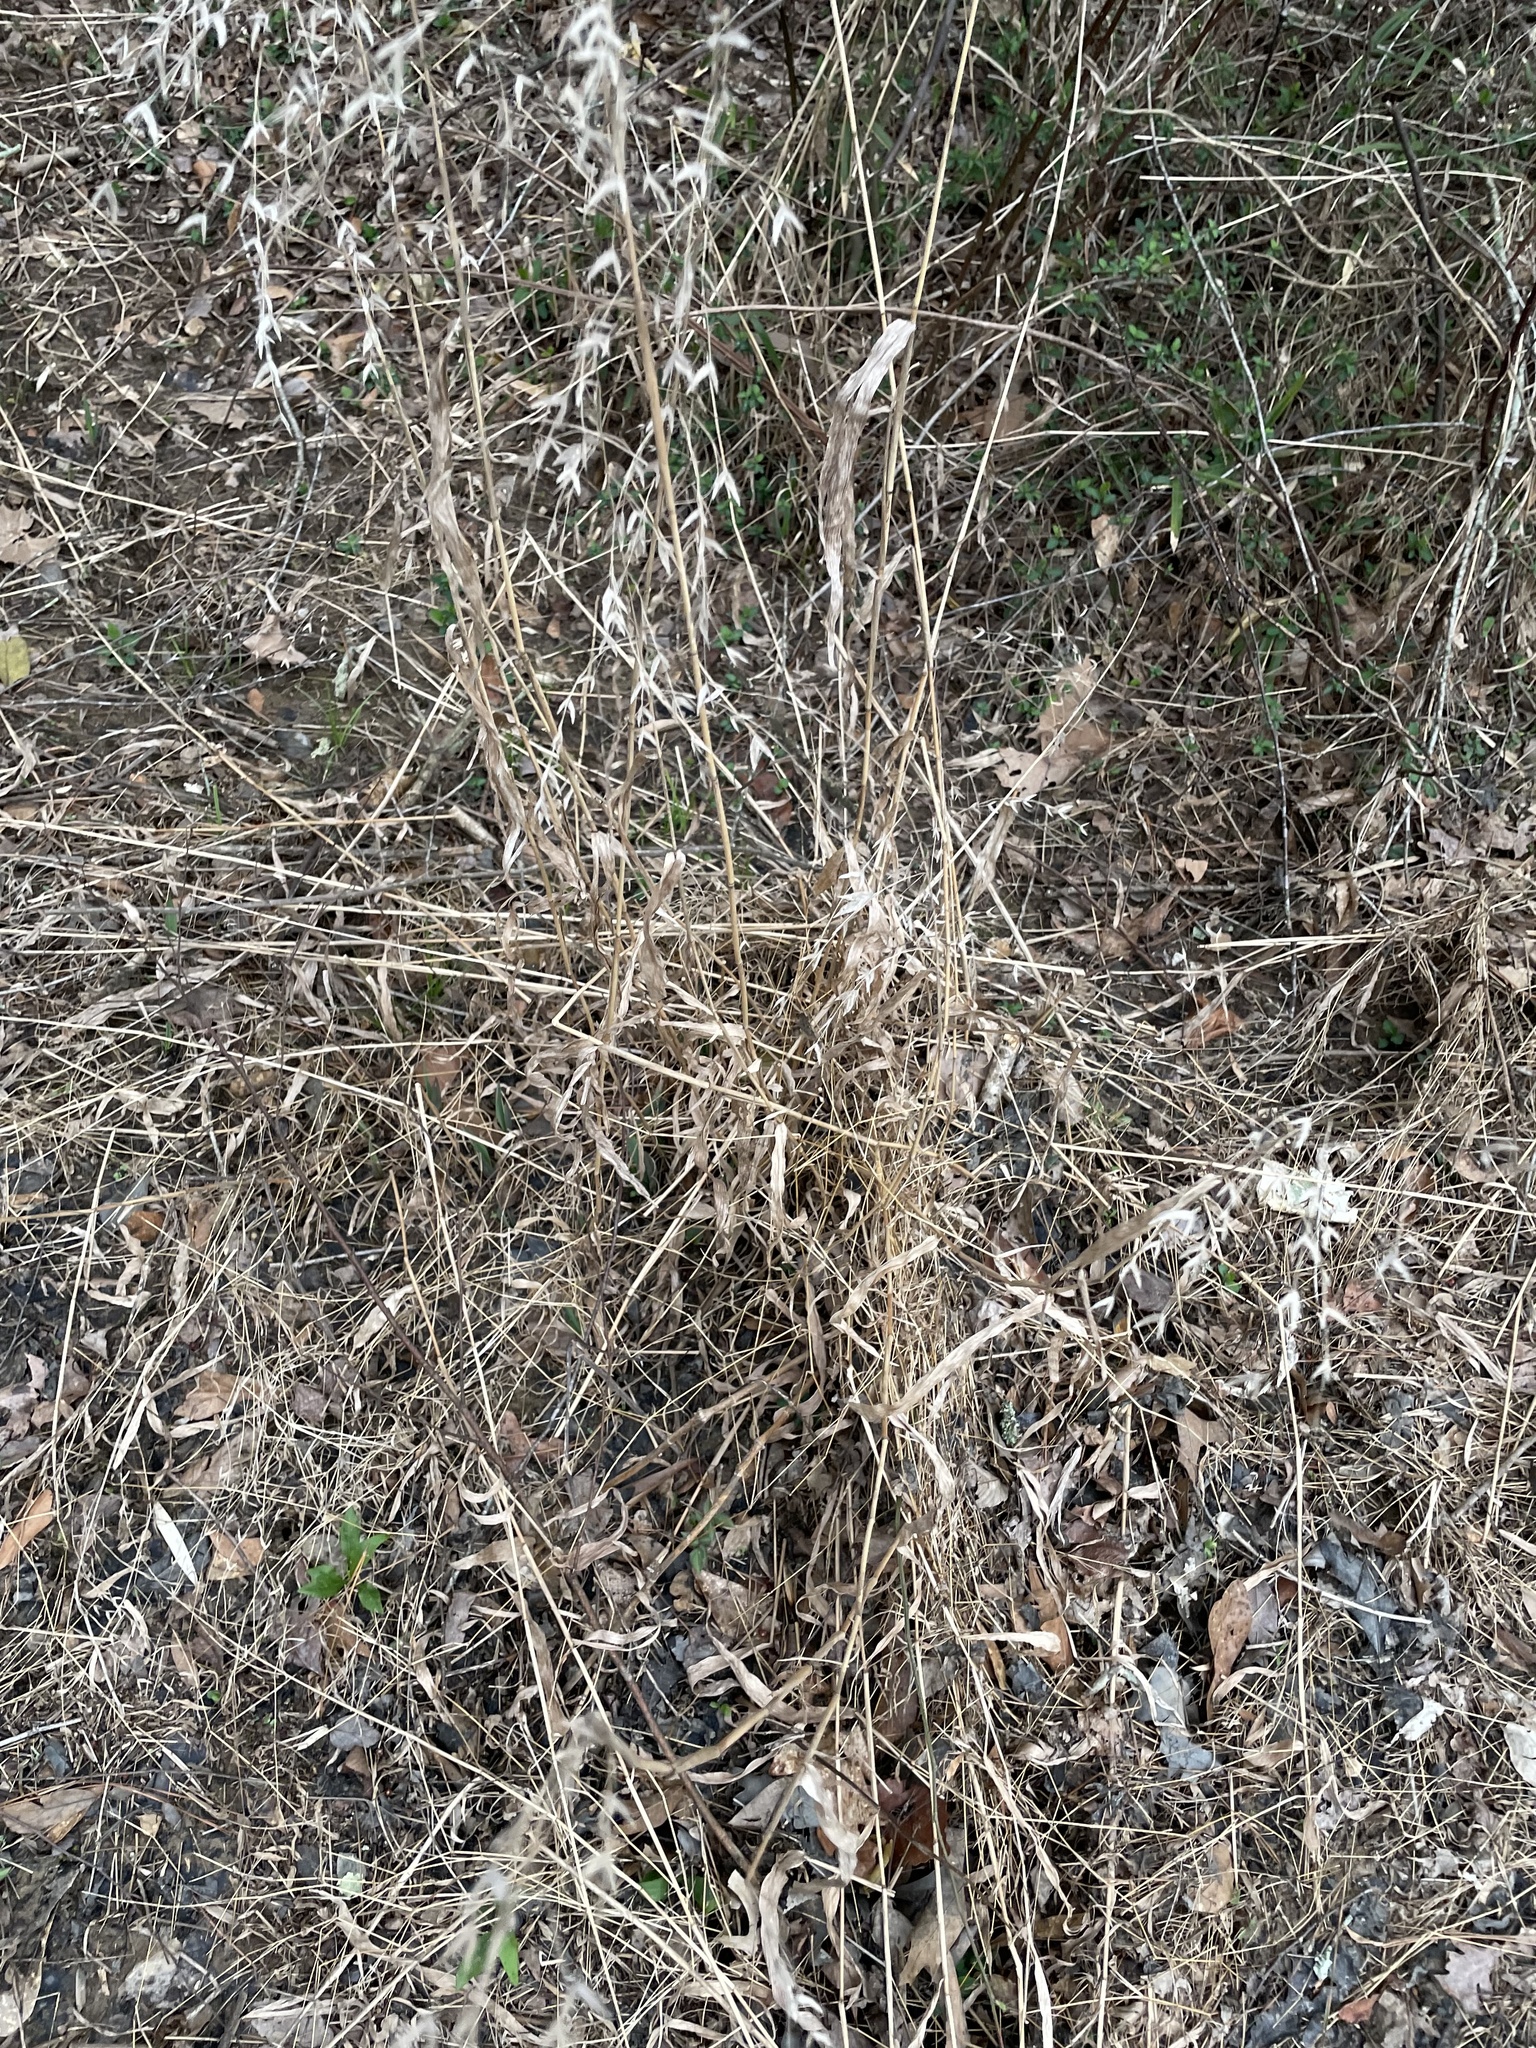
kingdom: Plantae
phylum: Tracheophyta
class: Liliopsida
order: Poales
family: Poaceae
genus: Chasmanthium
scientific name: Chasmanthium latifolium
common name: Broad-leaved chasmanthium
